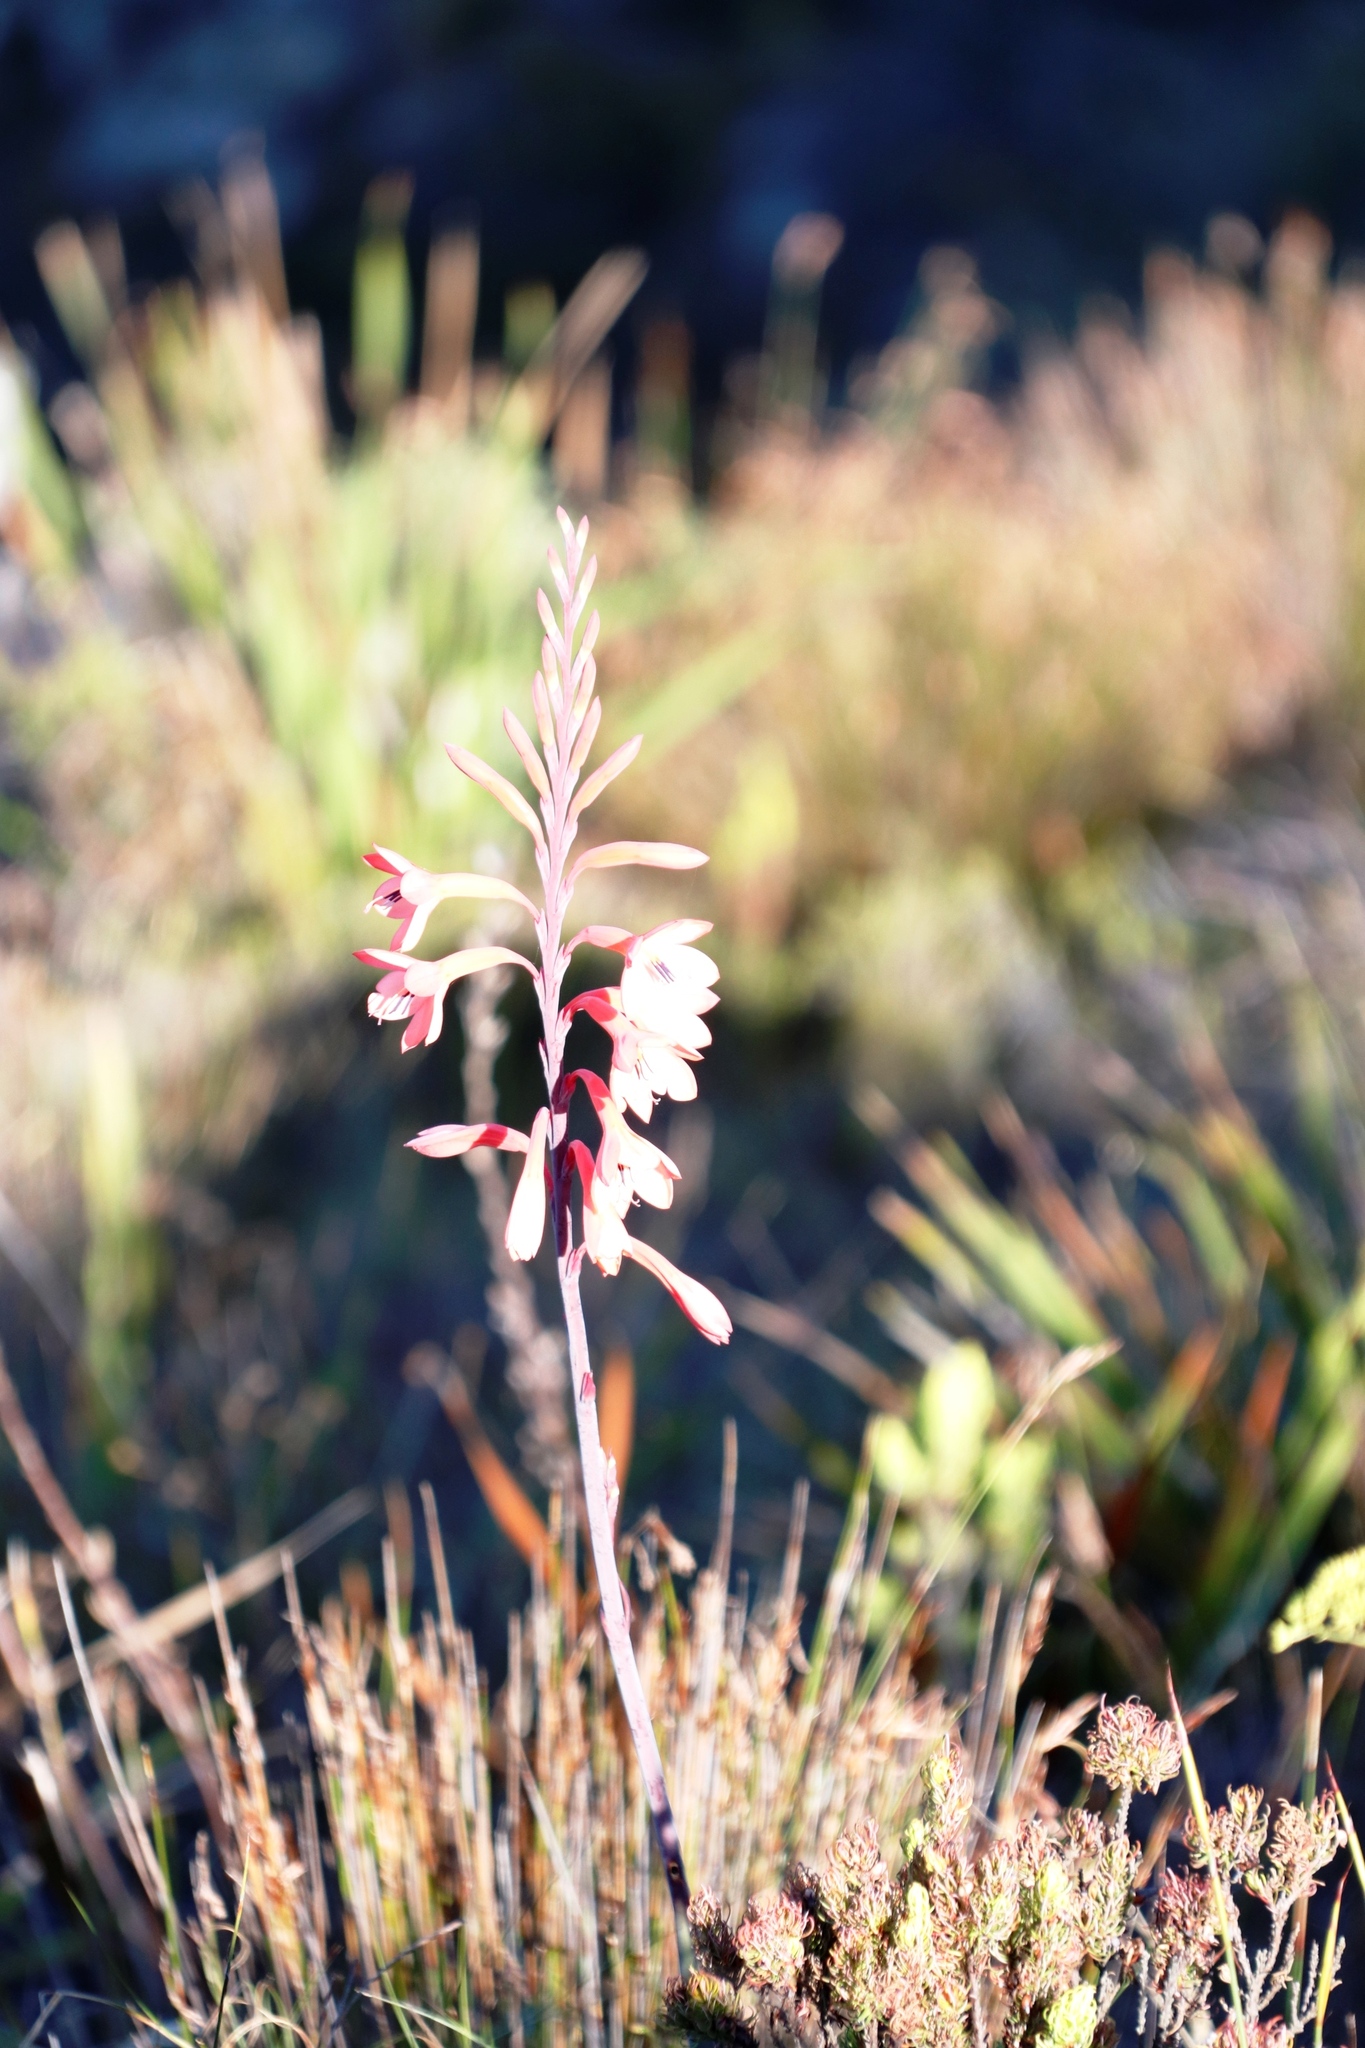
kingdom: Plantae
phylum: Tracheophyta
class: Liliopsida
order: Asparagales
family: Iridaceae
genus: Watsonia
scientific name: Watsonia tabularis
